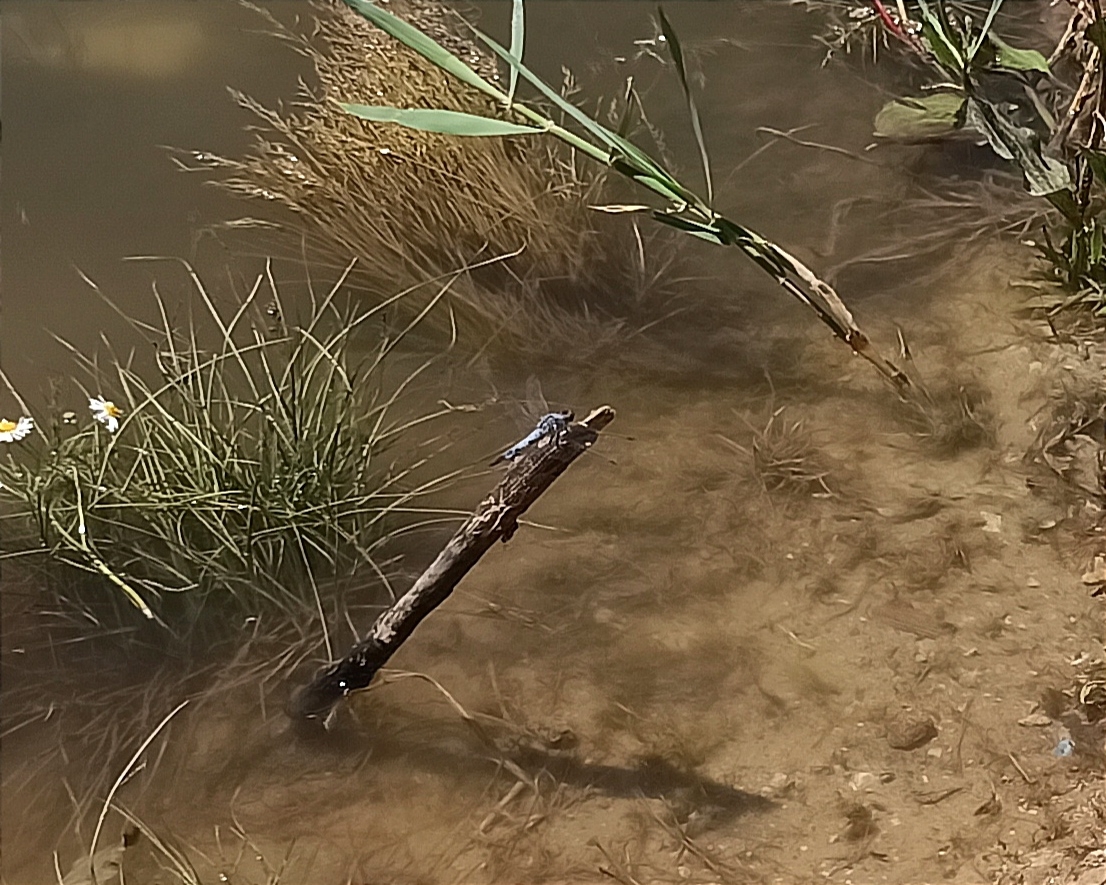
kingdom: Animalia
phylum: Arthropoda
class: Insecta
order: Odonata
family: Libellulidae
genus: Orthetrum
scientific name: Orthetrum cancellatum
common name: Black-tailed skimmer
